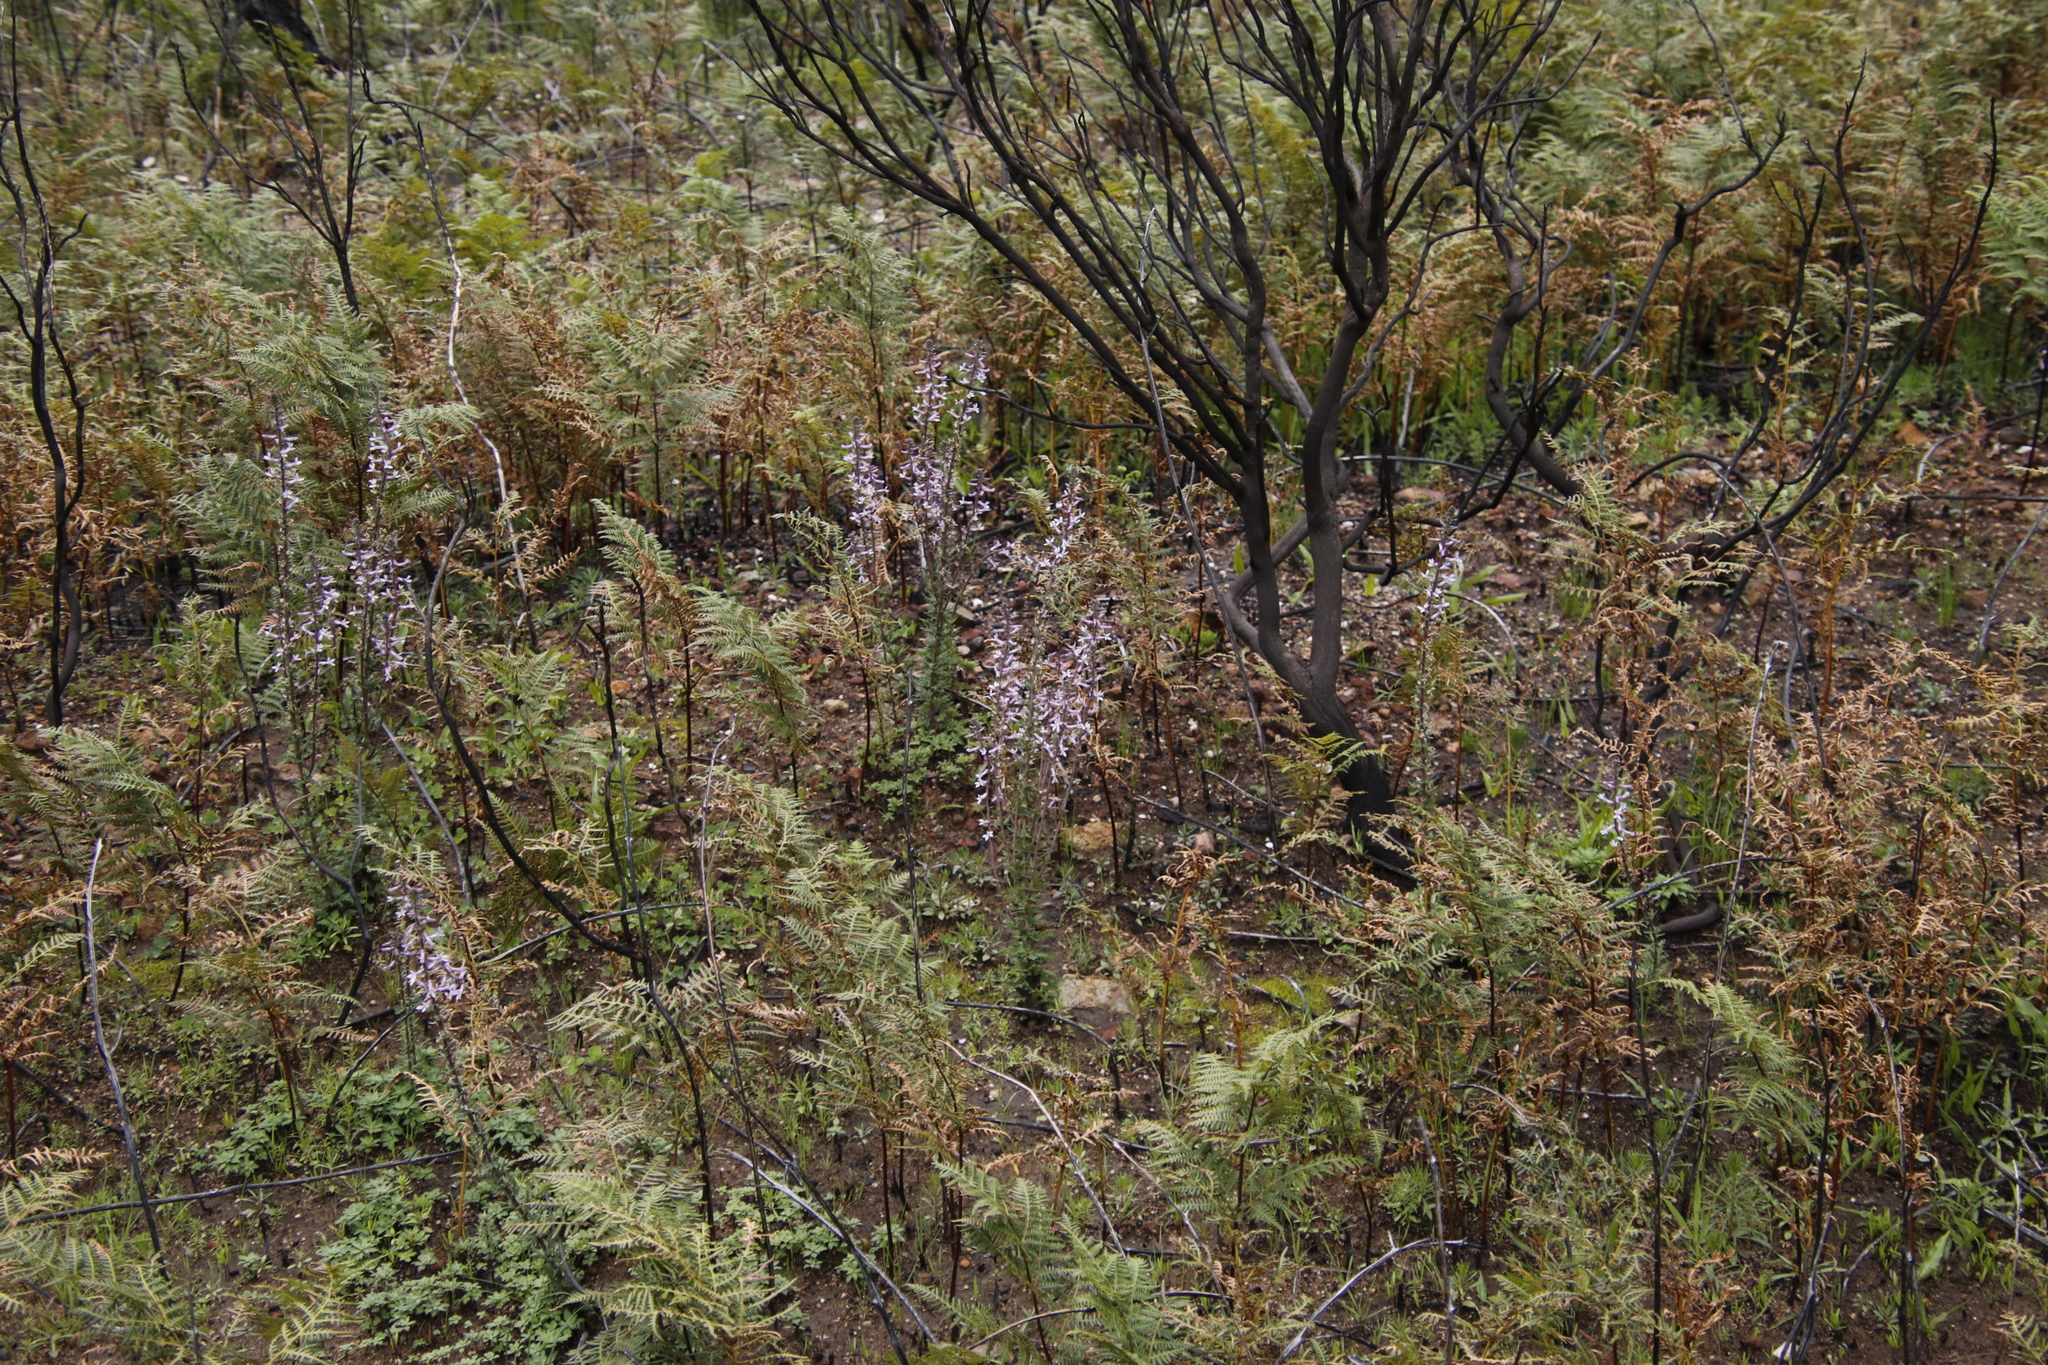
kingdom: Plantae
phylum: Tracheophyta
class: Magnoliopsida
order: Asterales
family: Campanulaceae
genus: Cyphia
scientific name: Cyphia bulbosa
